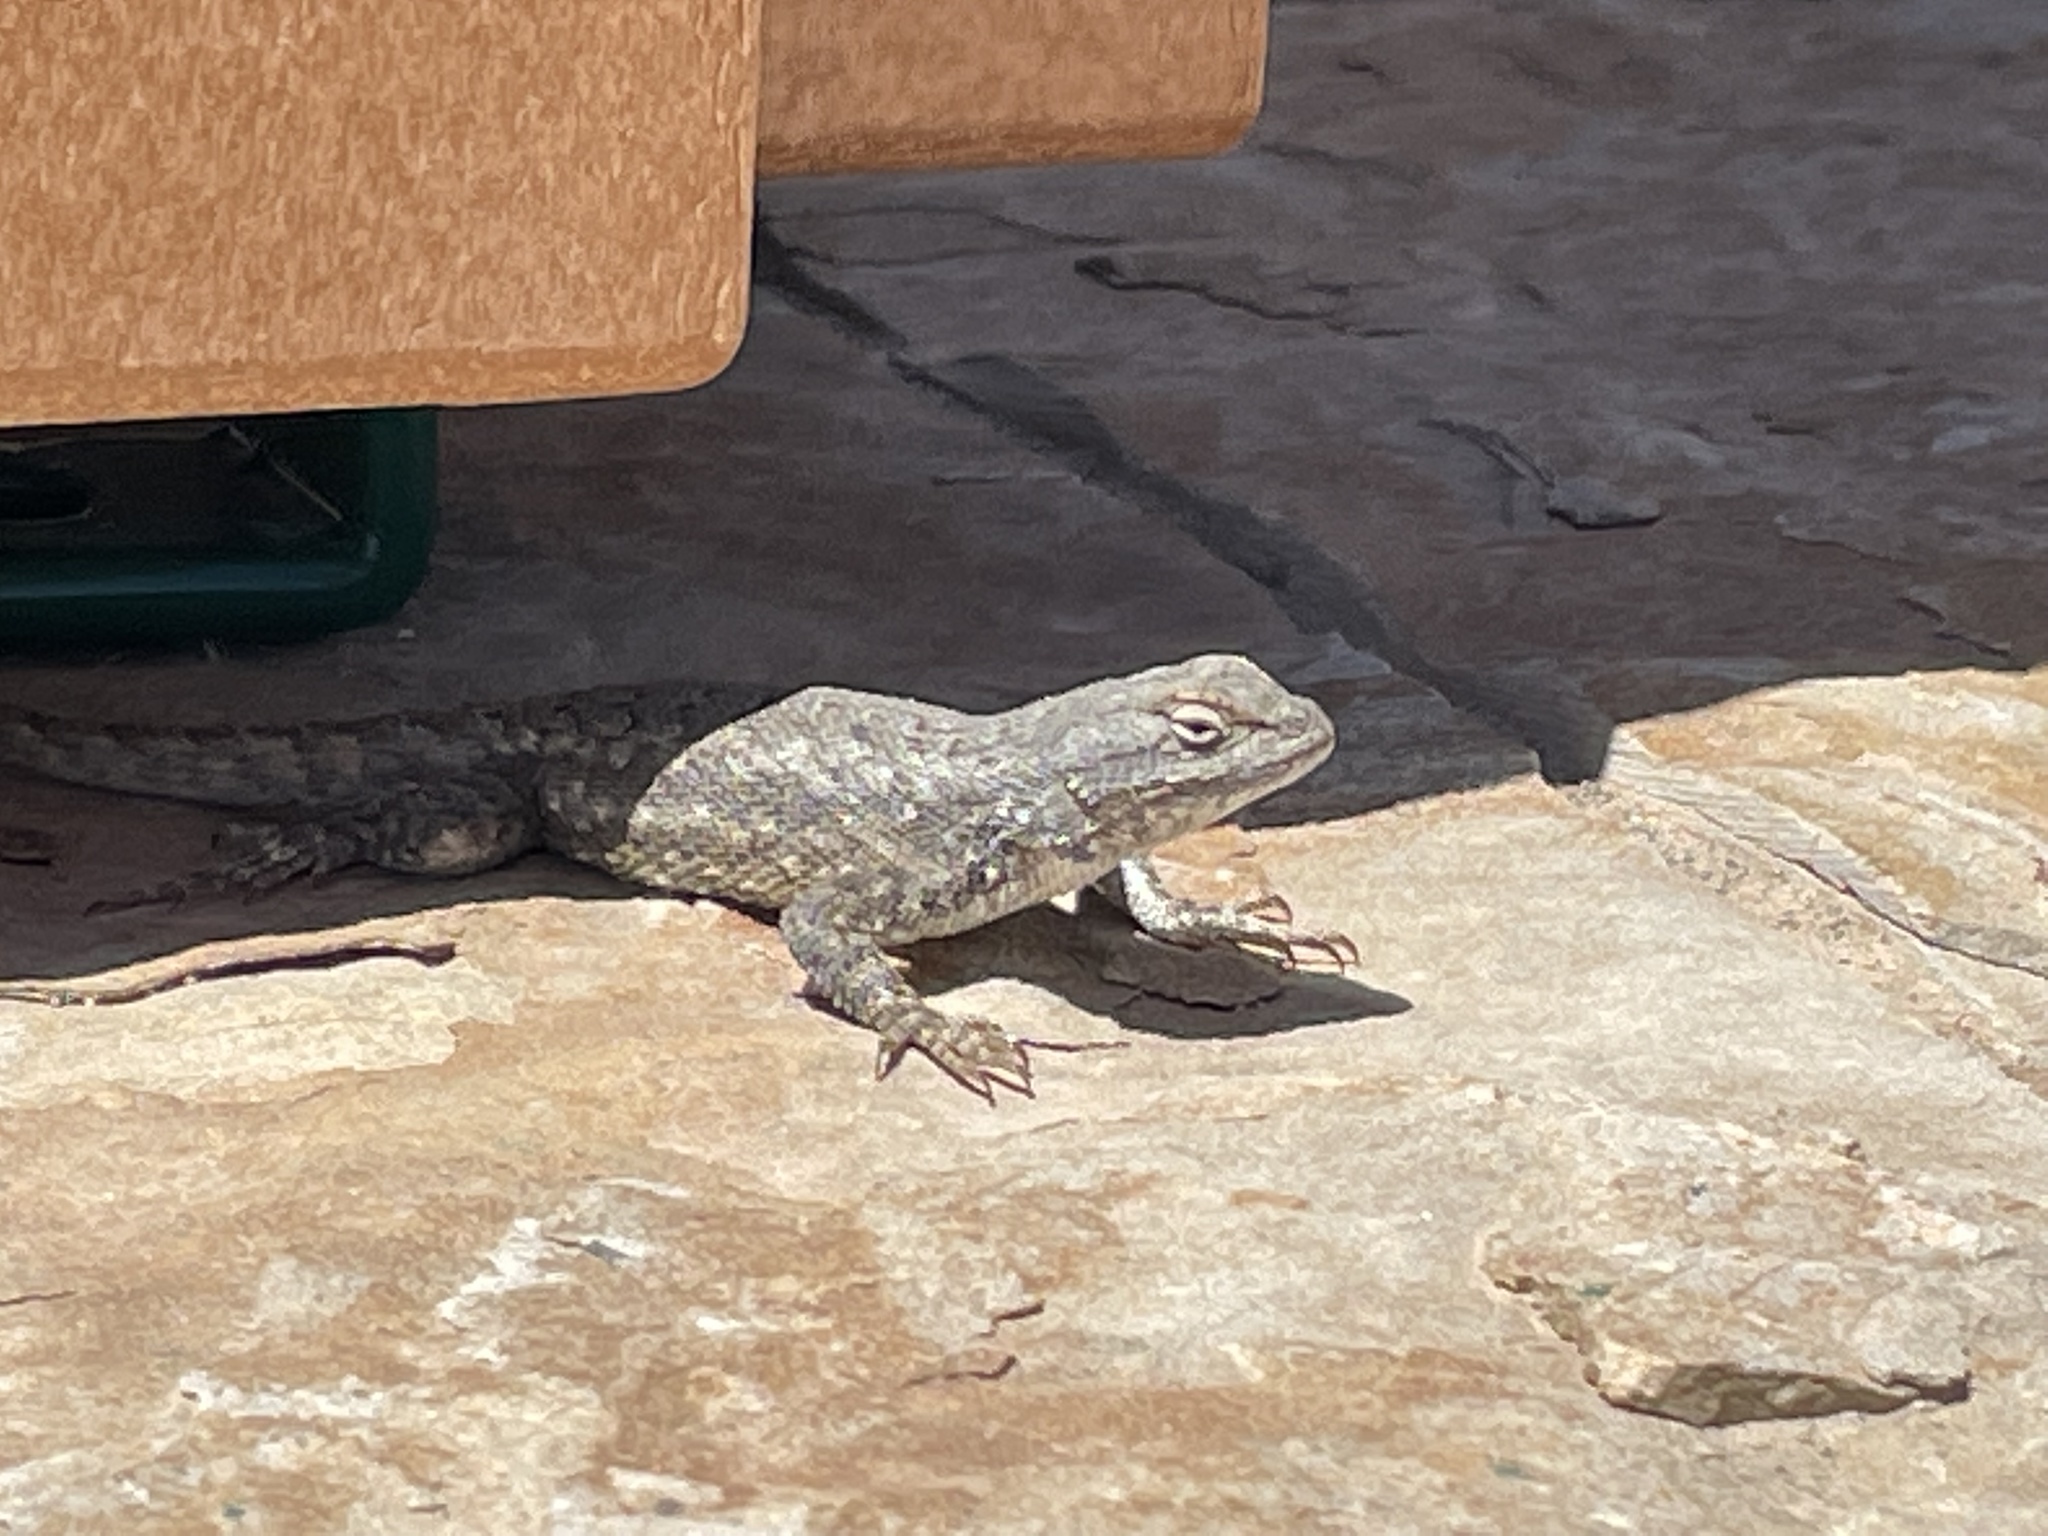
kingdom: Animalia
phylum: Chordata
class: Squamata
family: Phrynosomatidae
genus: Sceloporus
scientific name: Sceloporus tristichus
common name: Plateau fence lizard
